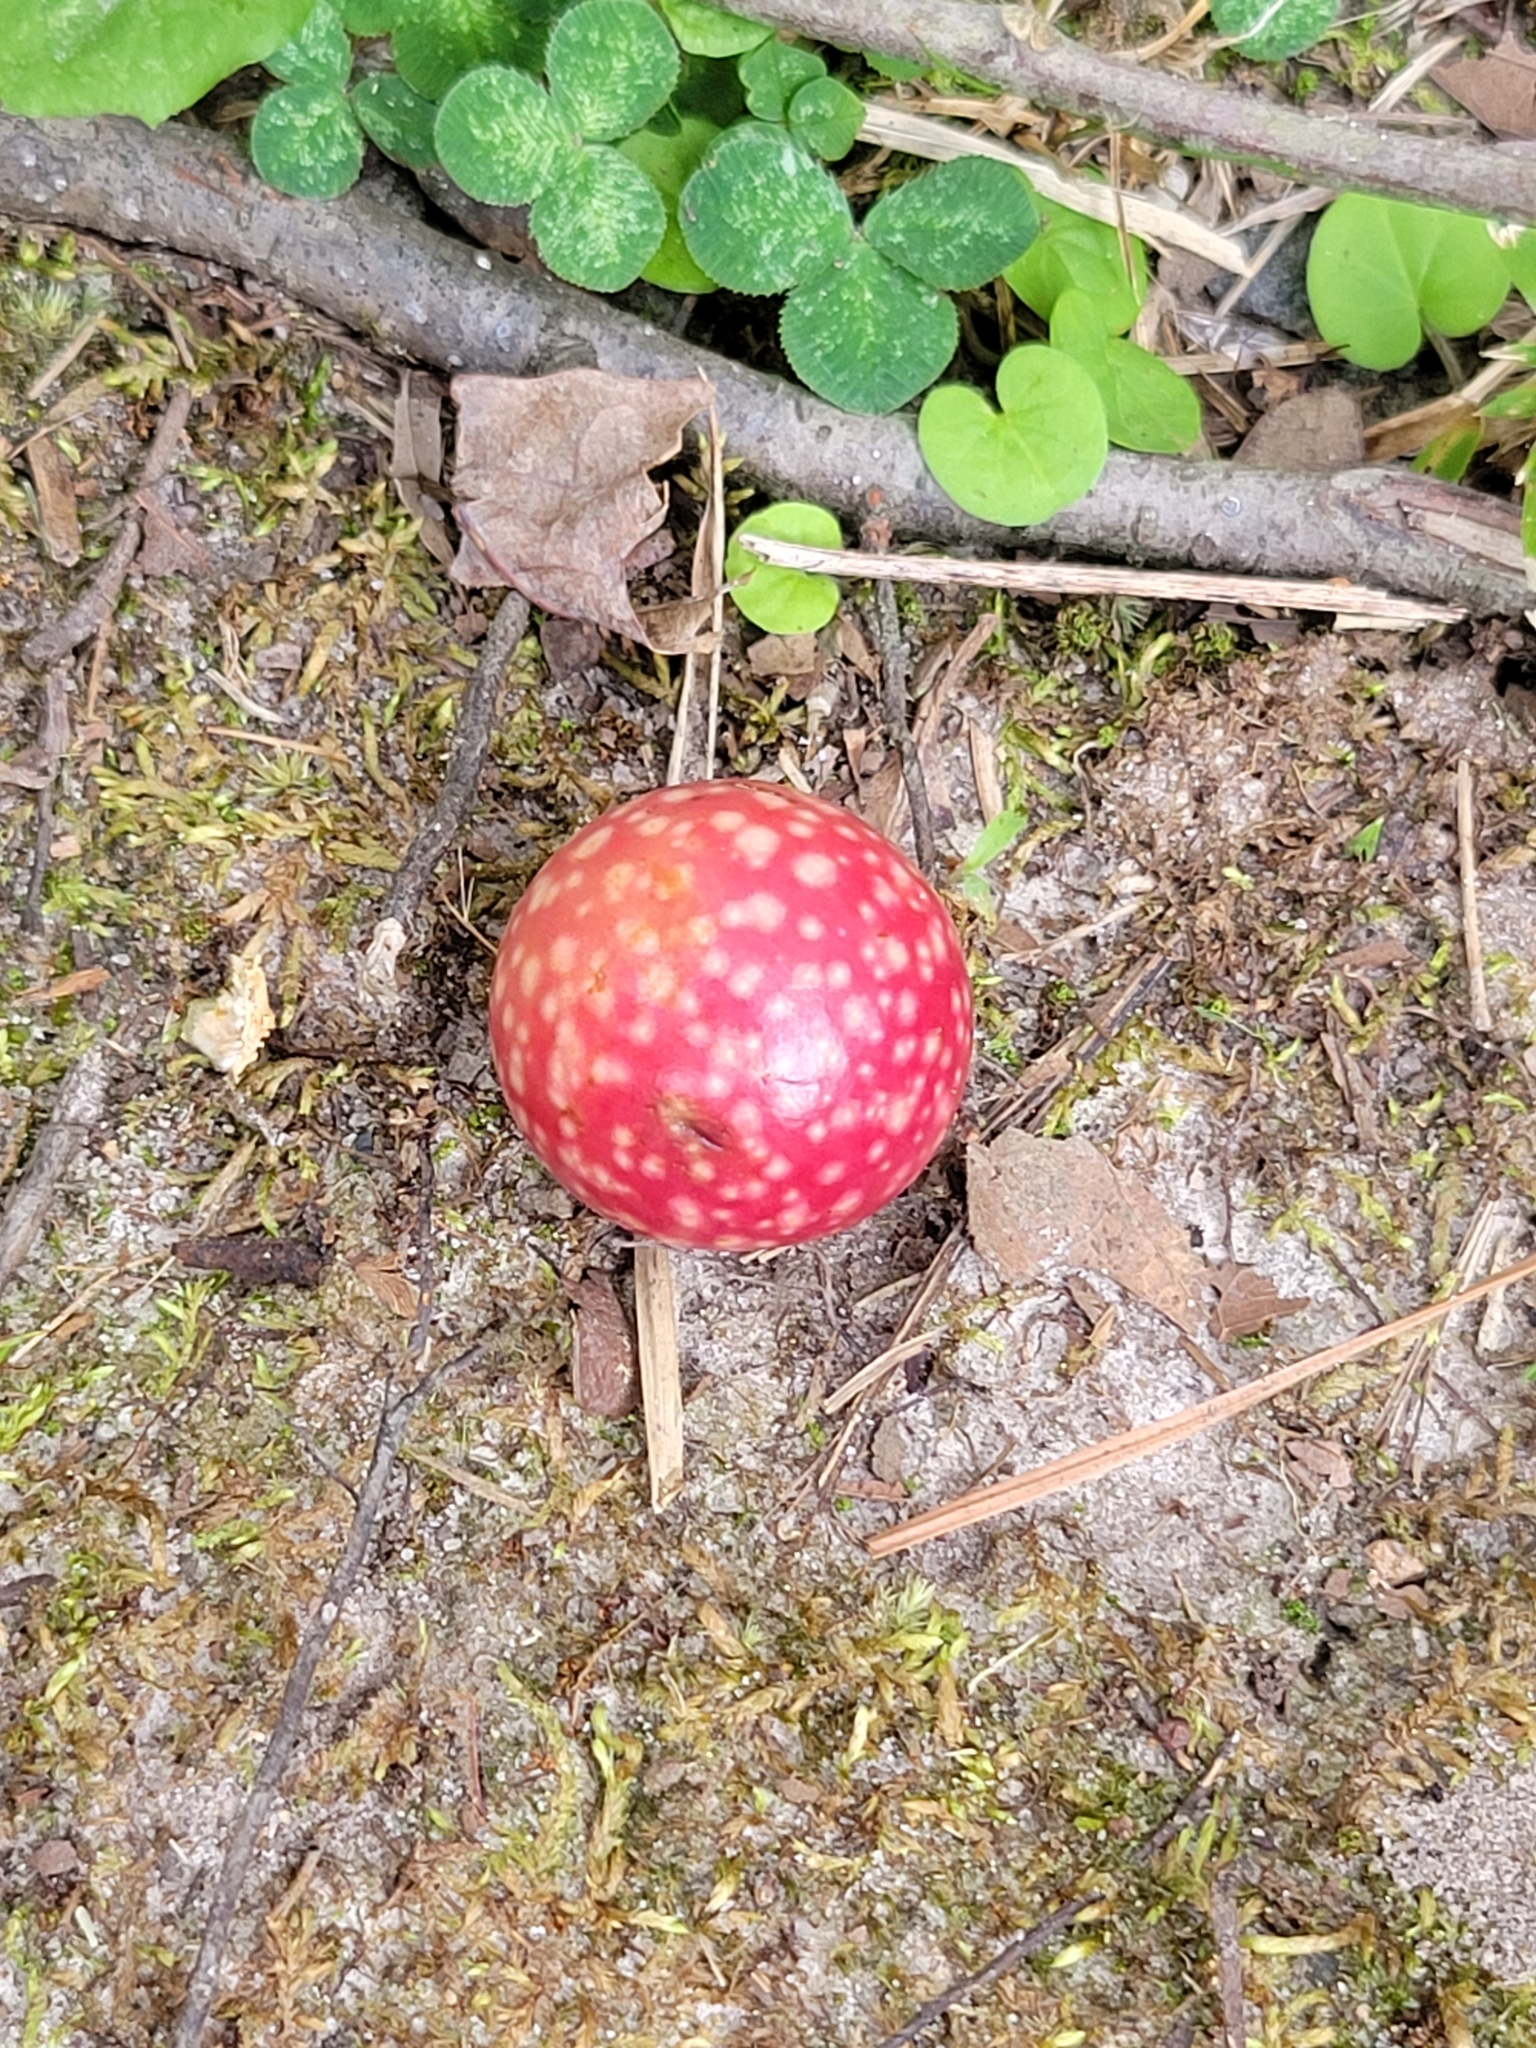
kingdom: Animalia
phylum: Arthropoda
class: Insecta
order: Hymenoptera
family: Cynipidae
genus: Amphibolips
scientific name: Amphibolips
